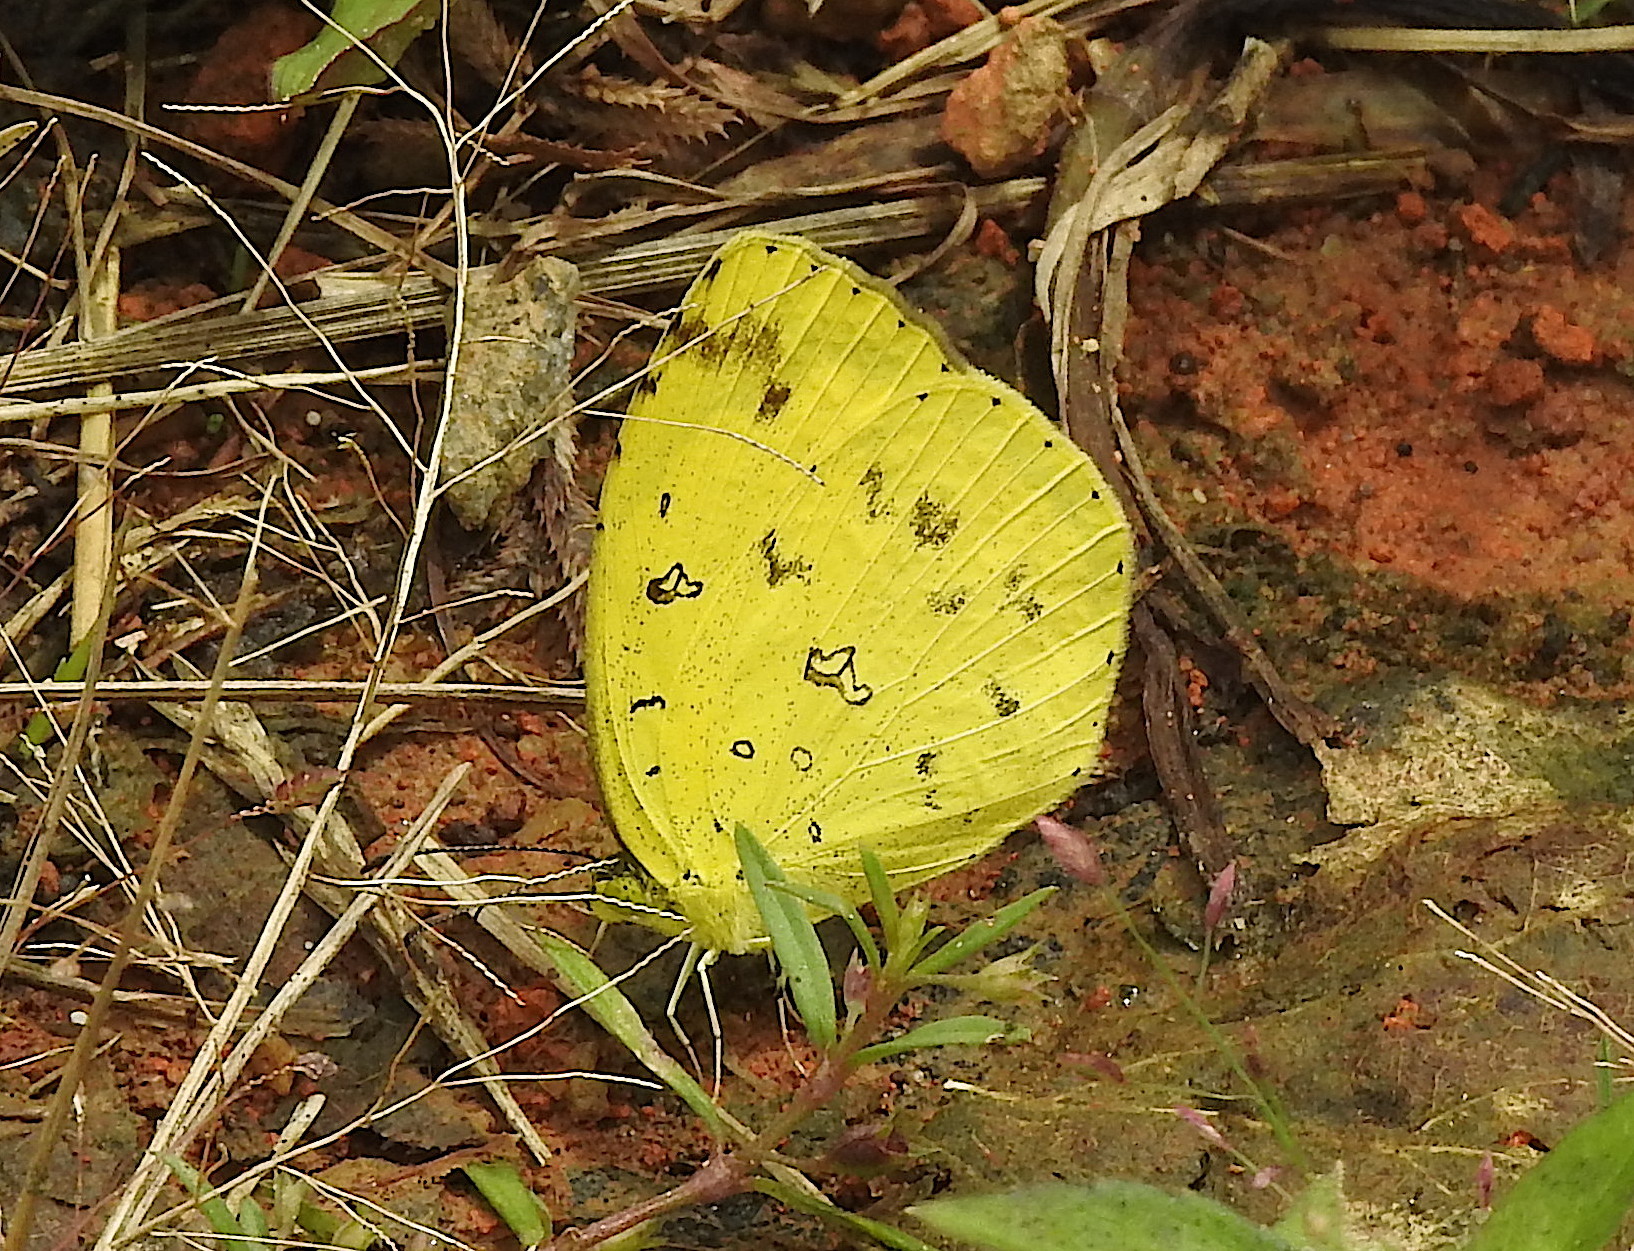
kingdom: Animalia
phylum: Arthropoda
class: Insecta
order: Lepidoptera
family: Pieridae
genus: Eurema
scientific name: Eurema hecabe
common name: Pale grass yellow
